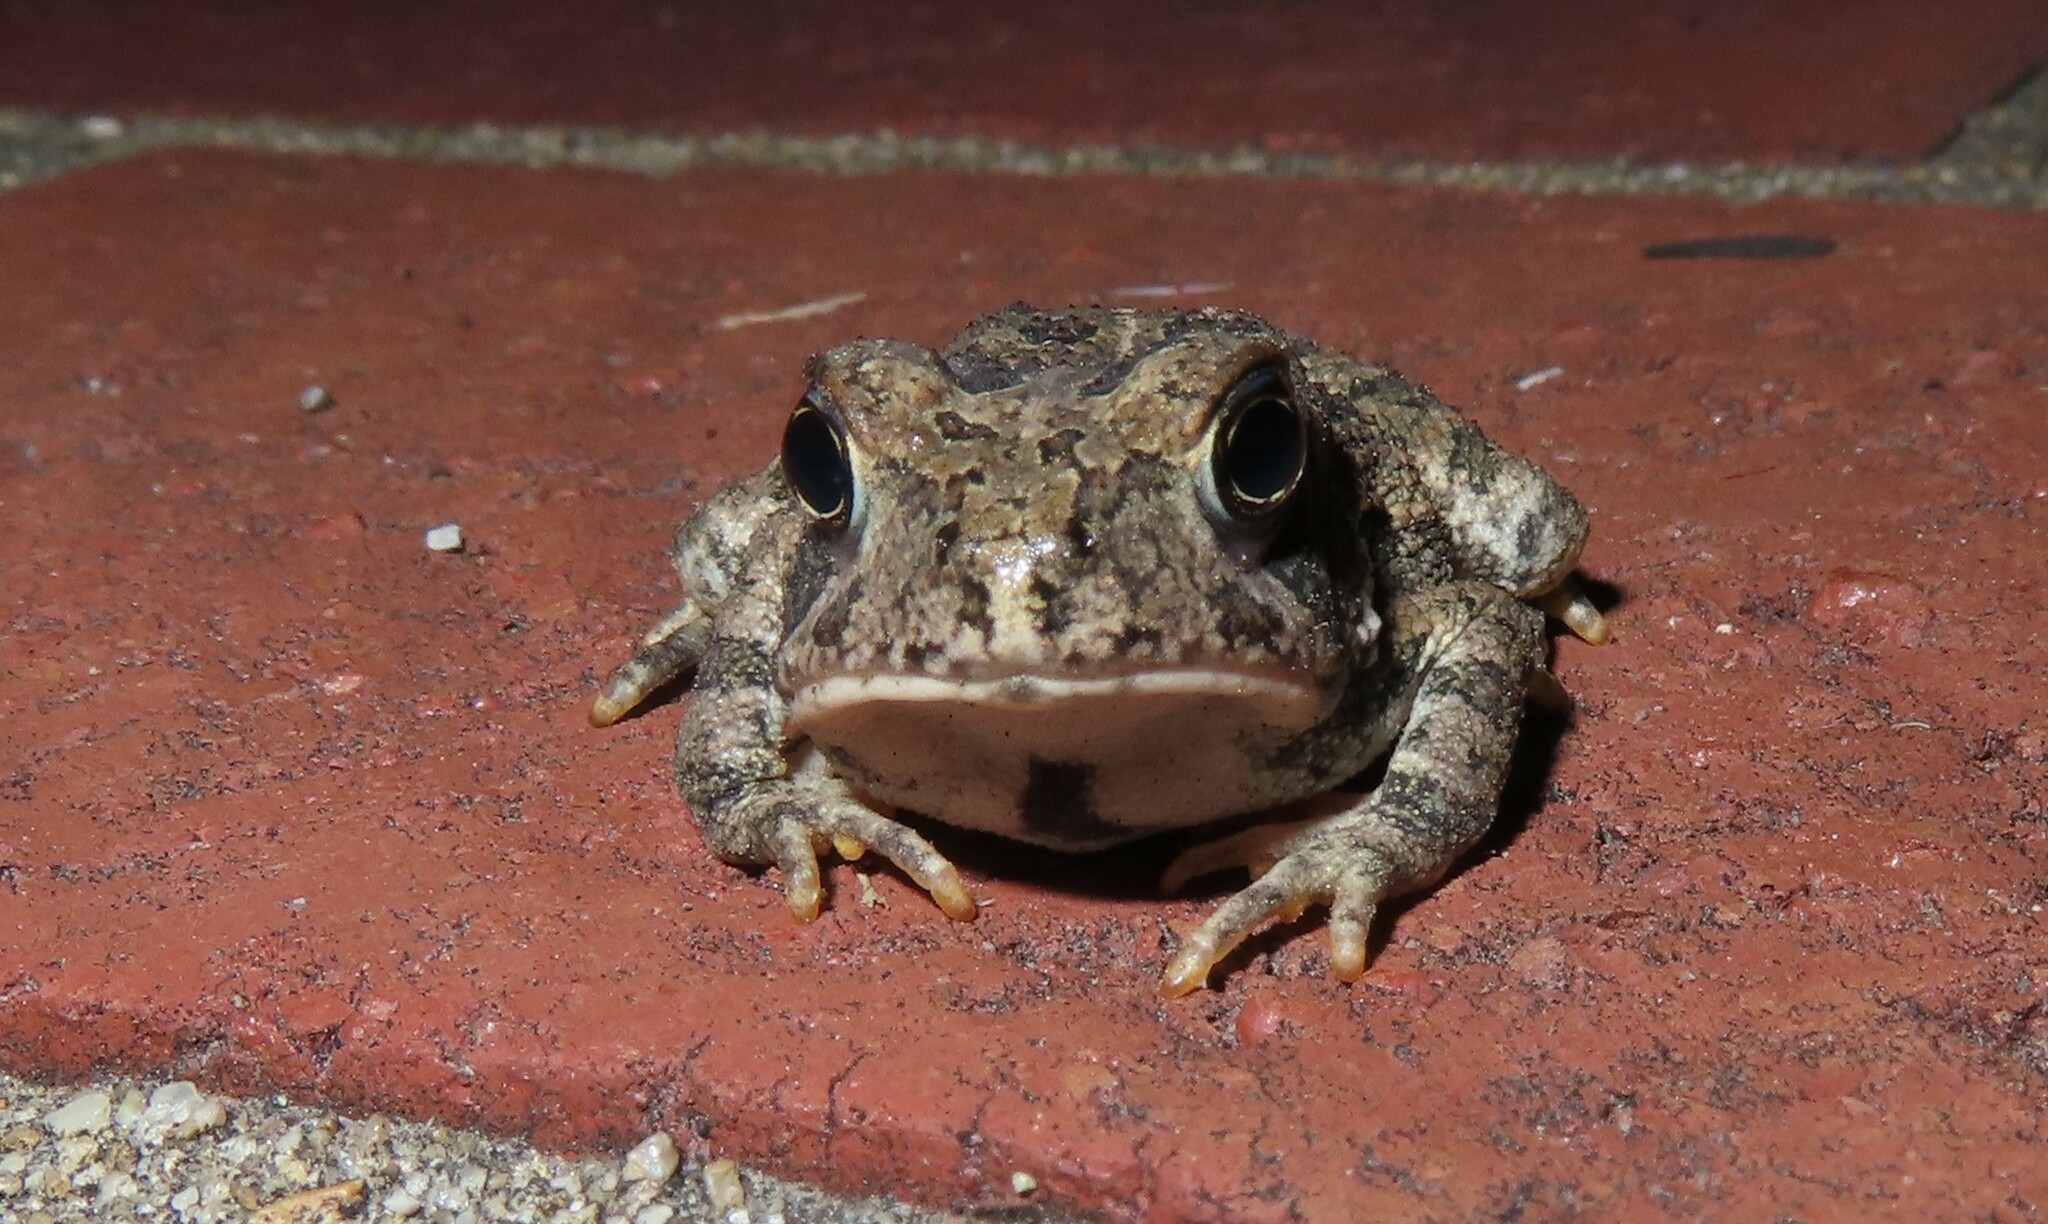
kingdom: Animalia
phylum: Chordata
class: Amphibia
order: Anura
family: Bufonidae
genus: Anaxyrus
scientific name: Anaxyrus fowleri
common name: Fowler's toad
